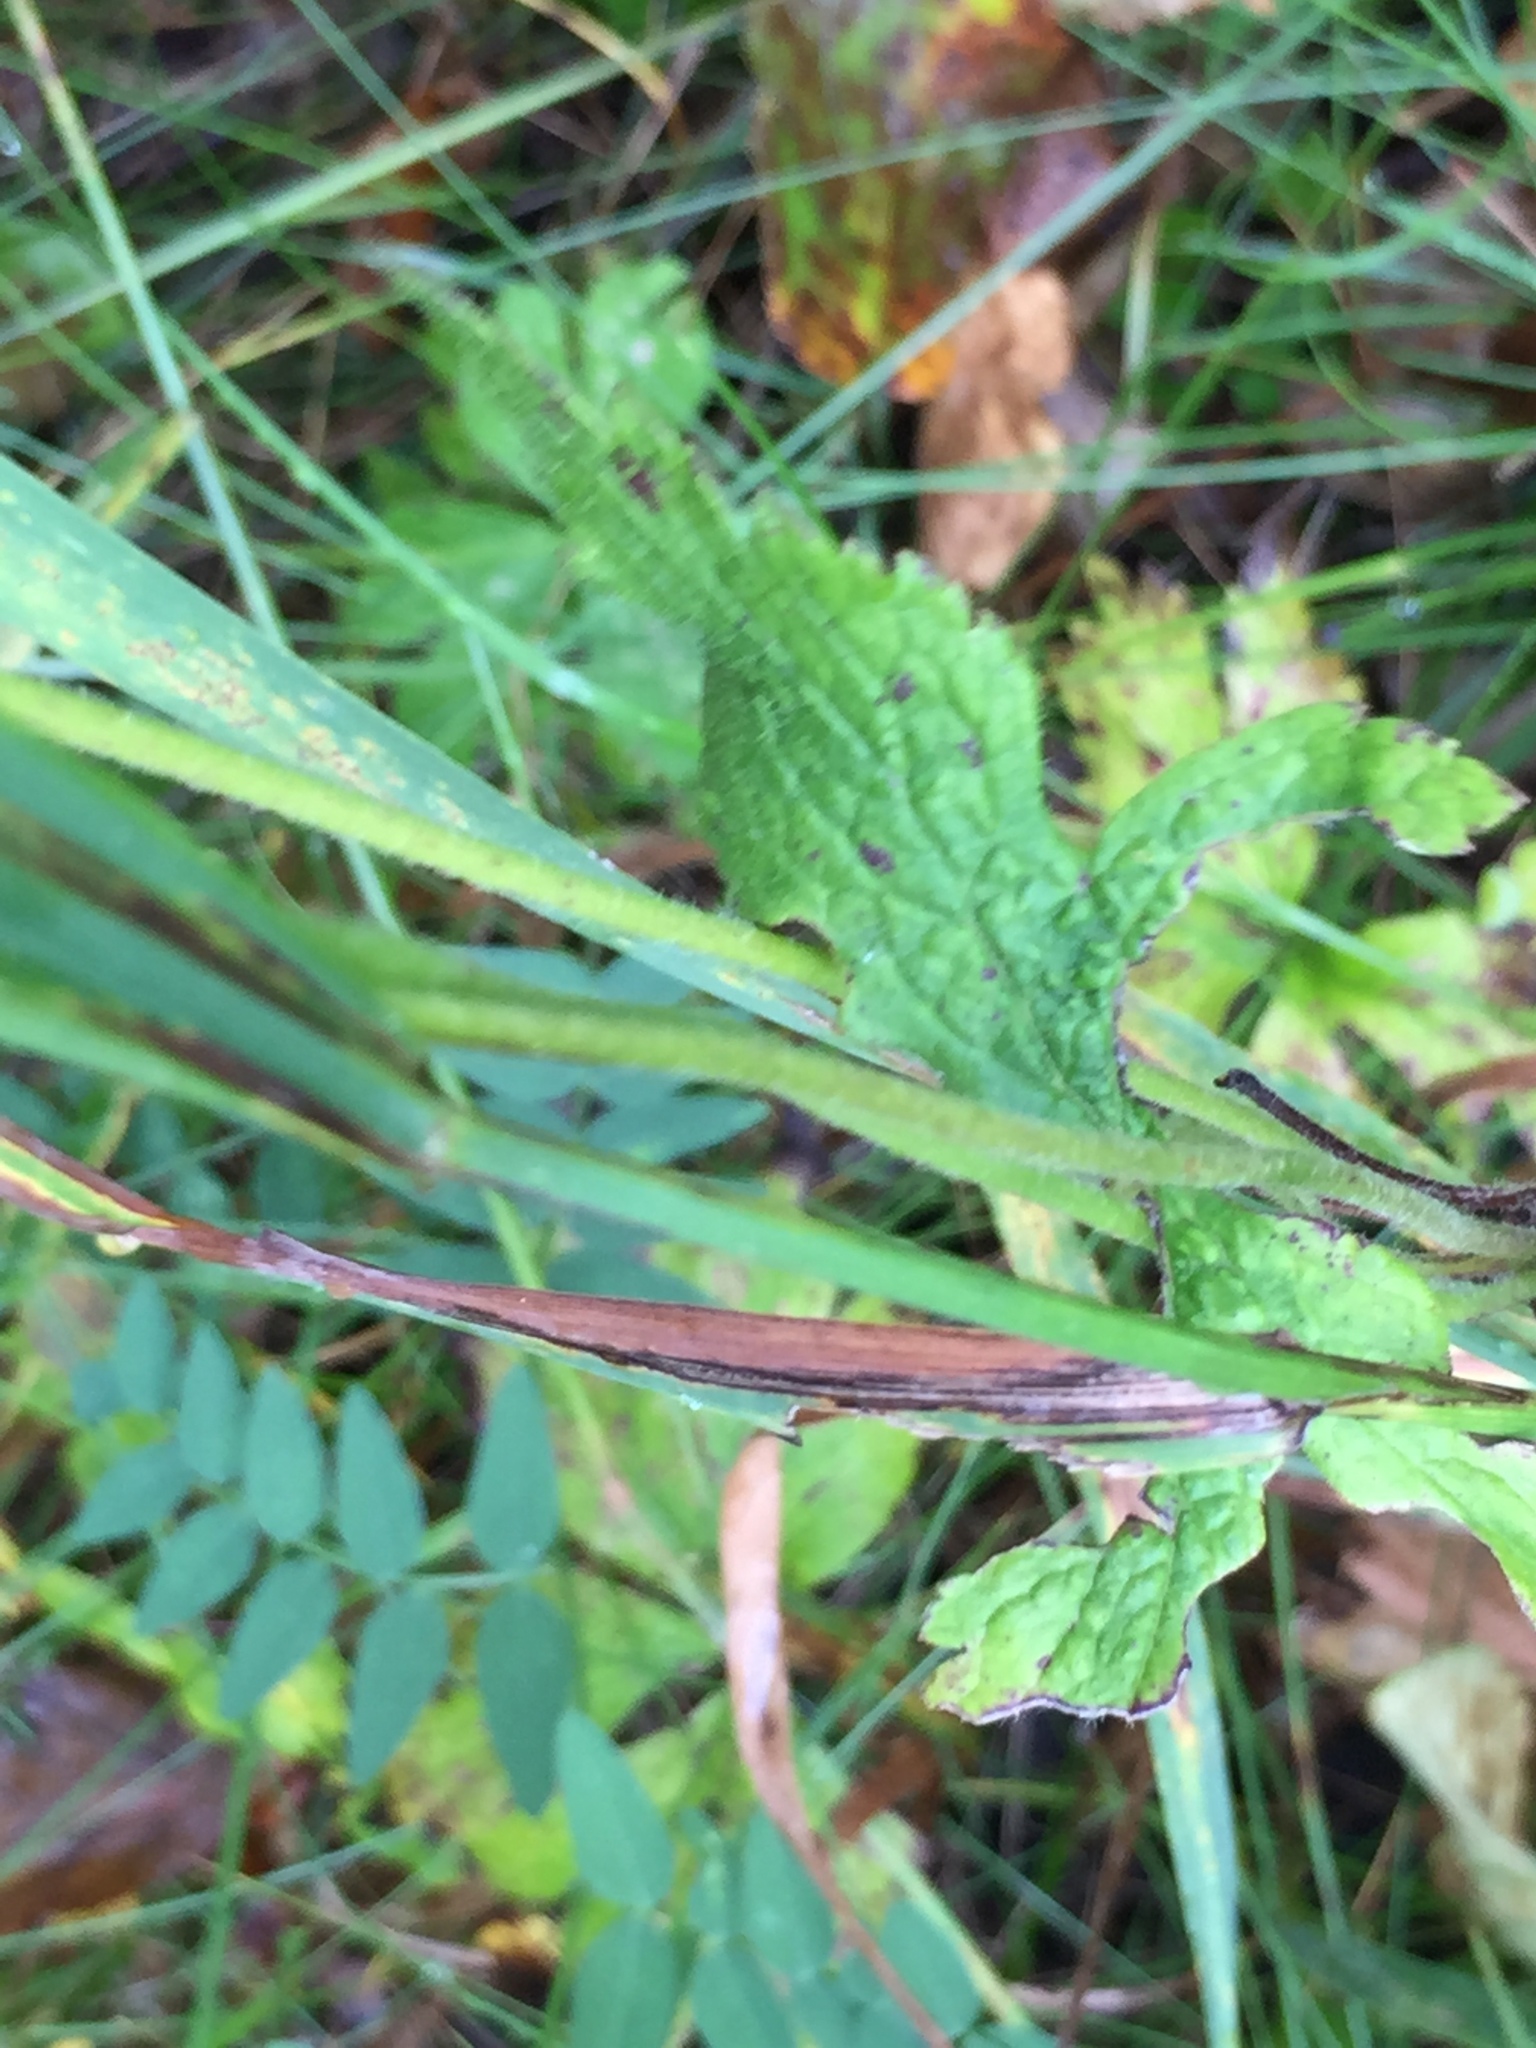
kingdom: Plantae
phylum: Tracheophyta
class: Magnoliopsida
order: Ranunculales
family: Ranunculaceae
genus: Anemone
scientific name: Anemone virginiana
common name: Tall anemone
